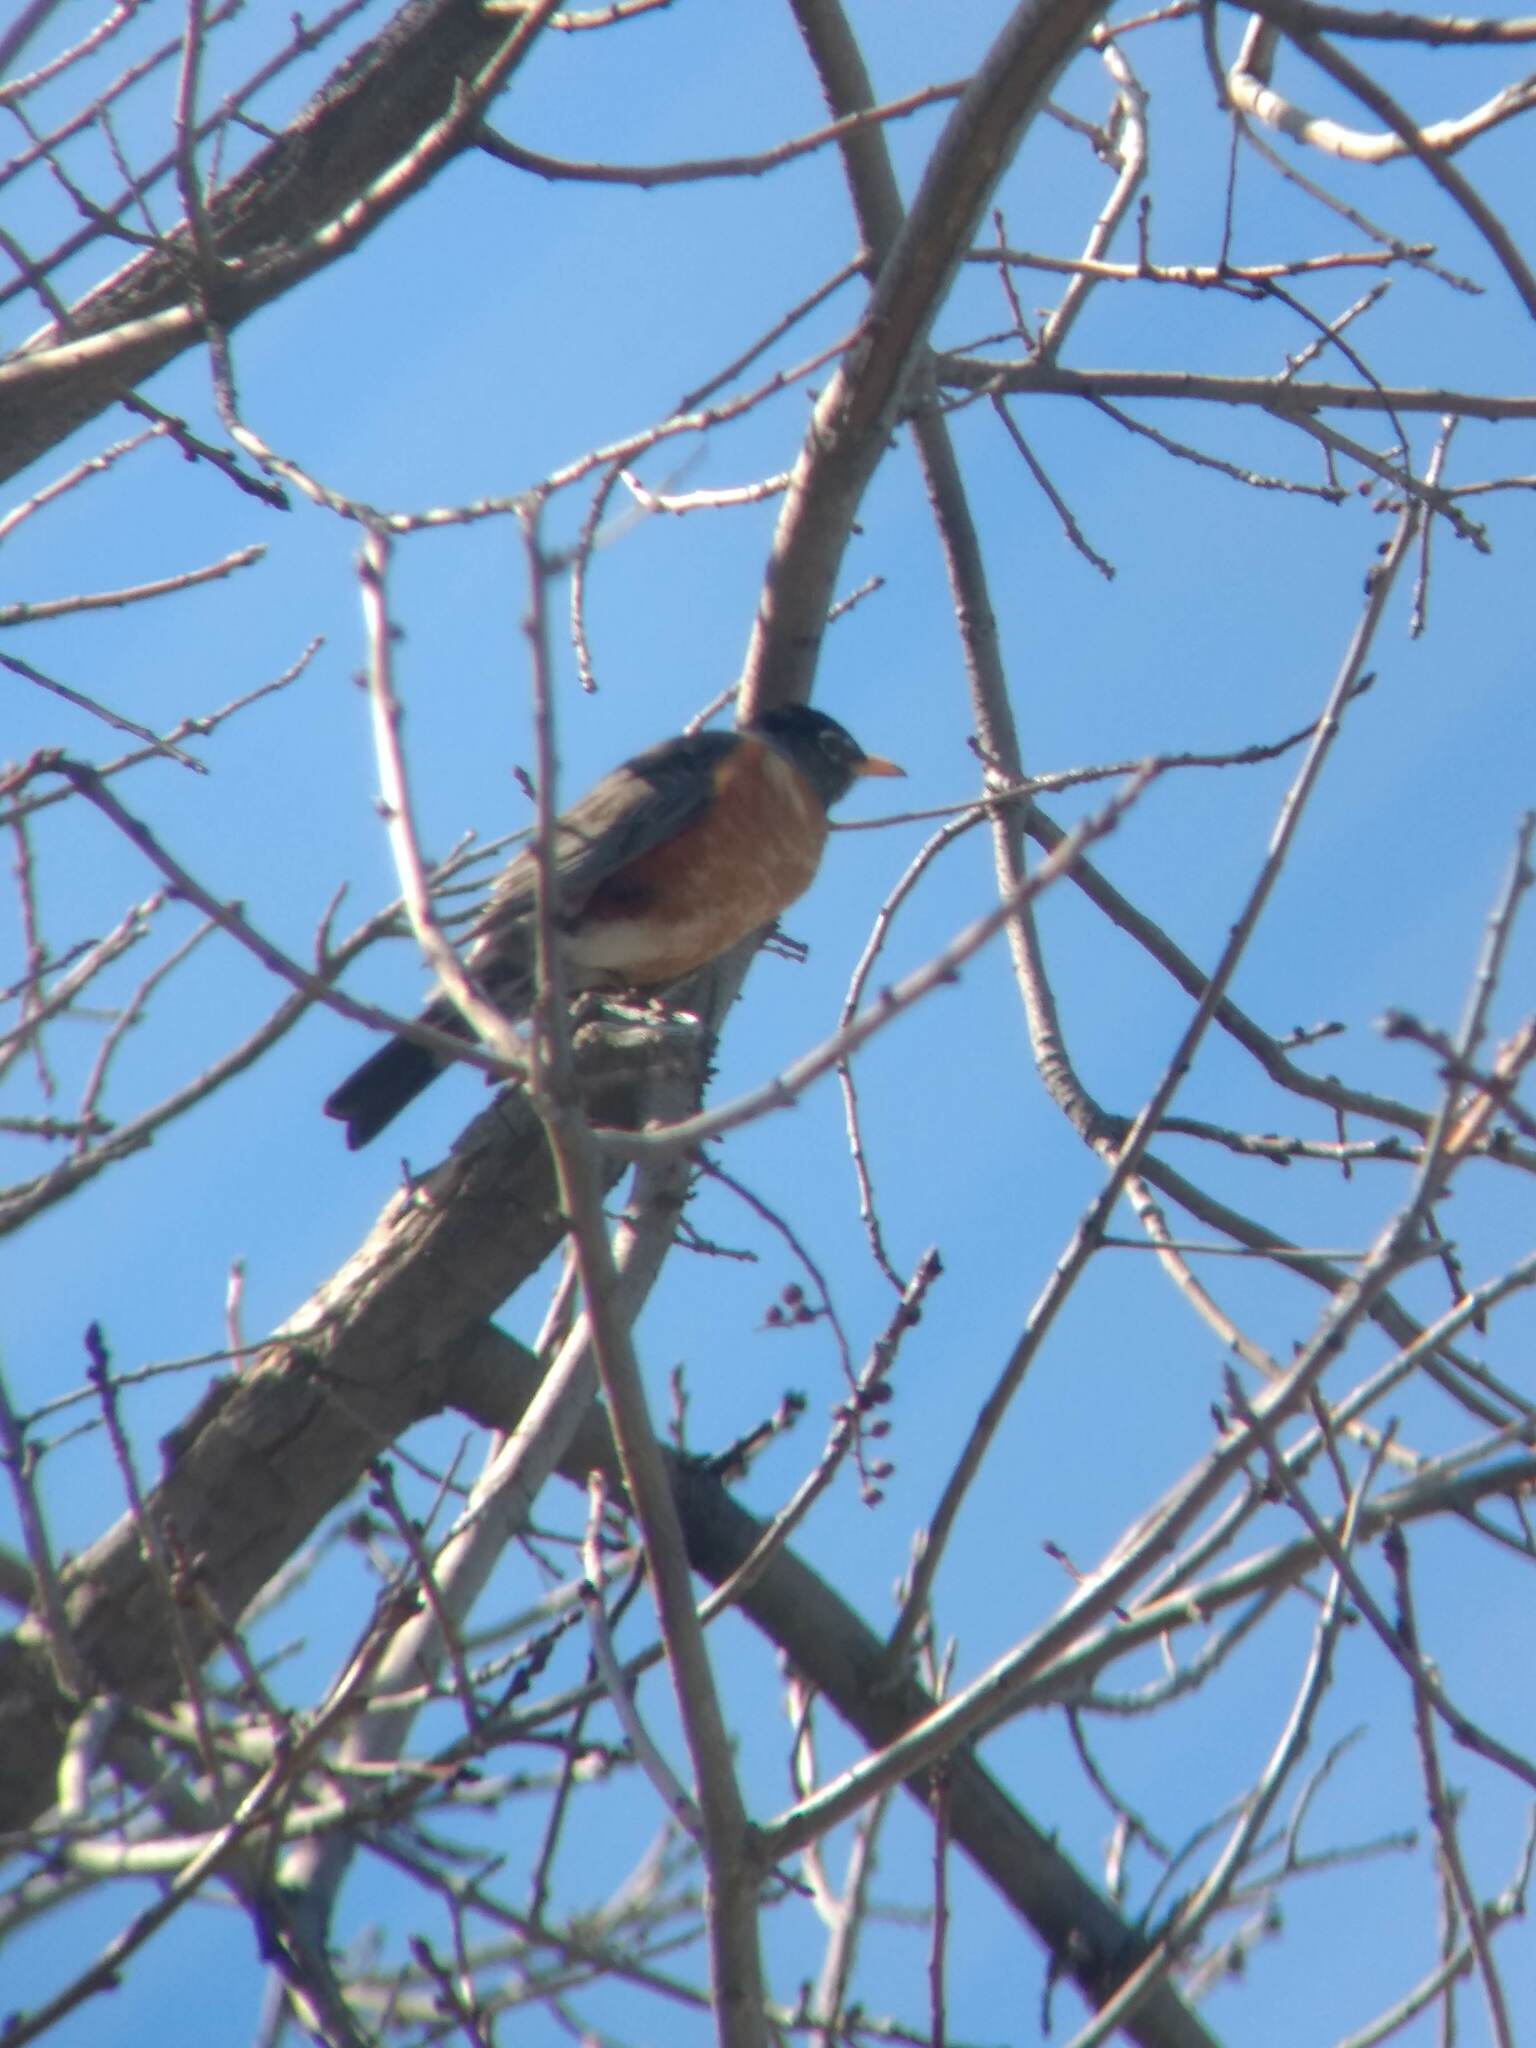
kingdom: Animalia
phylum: Chordata
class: Aves
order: Passeriformes
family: Turdidae
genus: Turdus
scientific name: Turdus migratorius
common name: American robin
